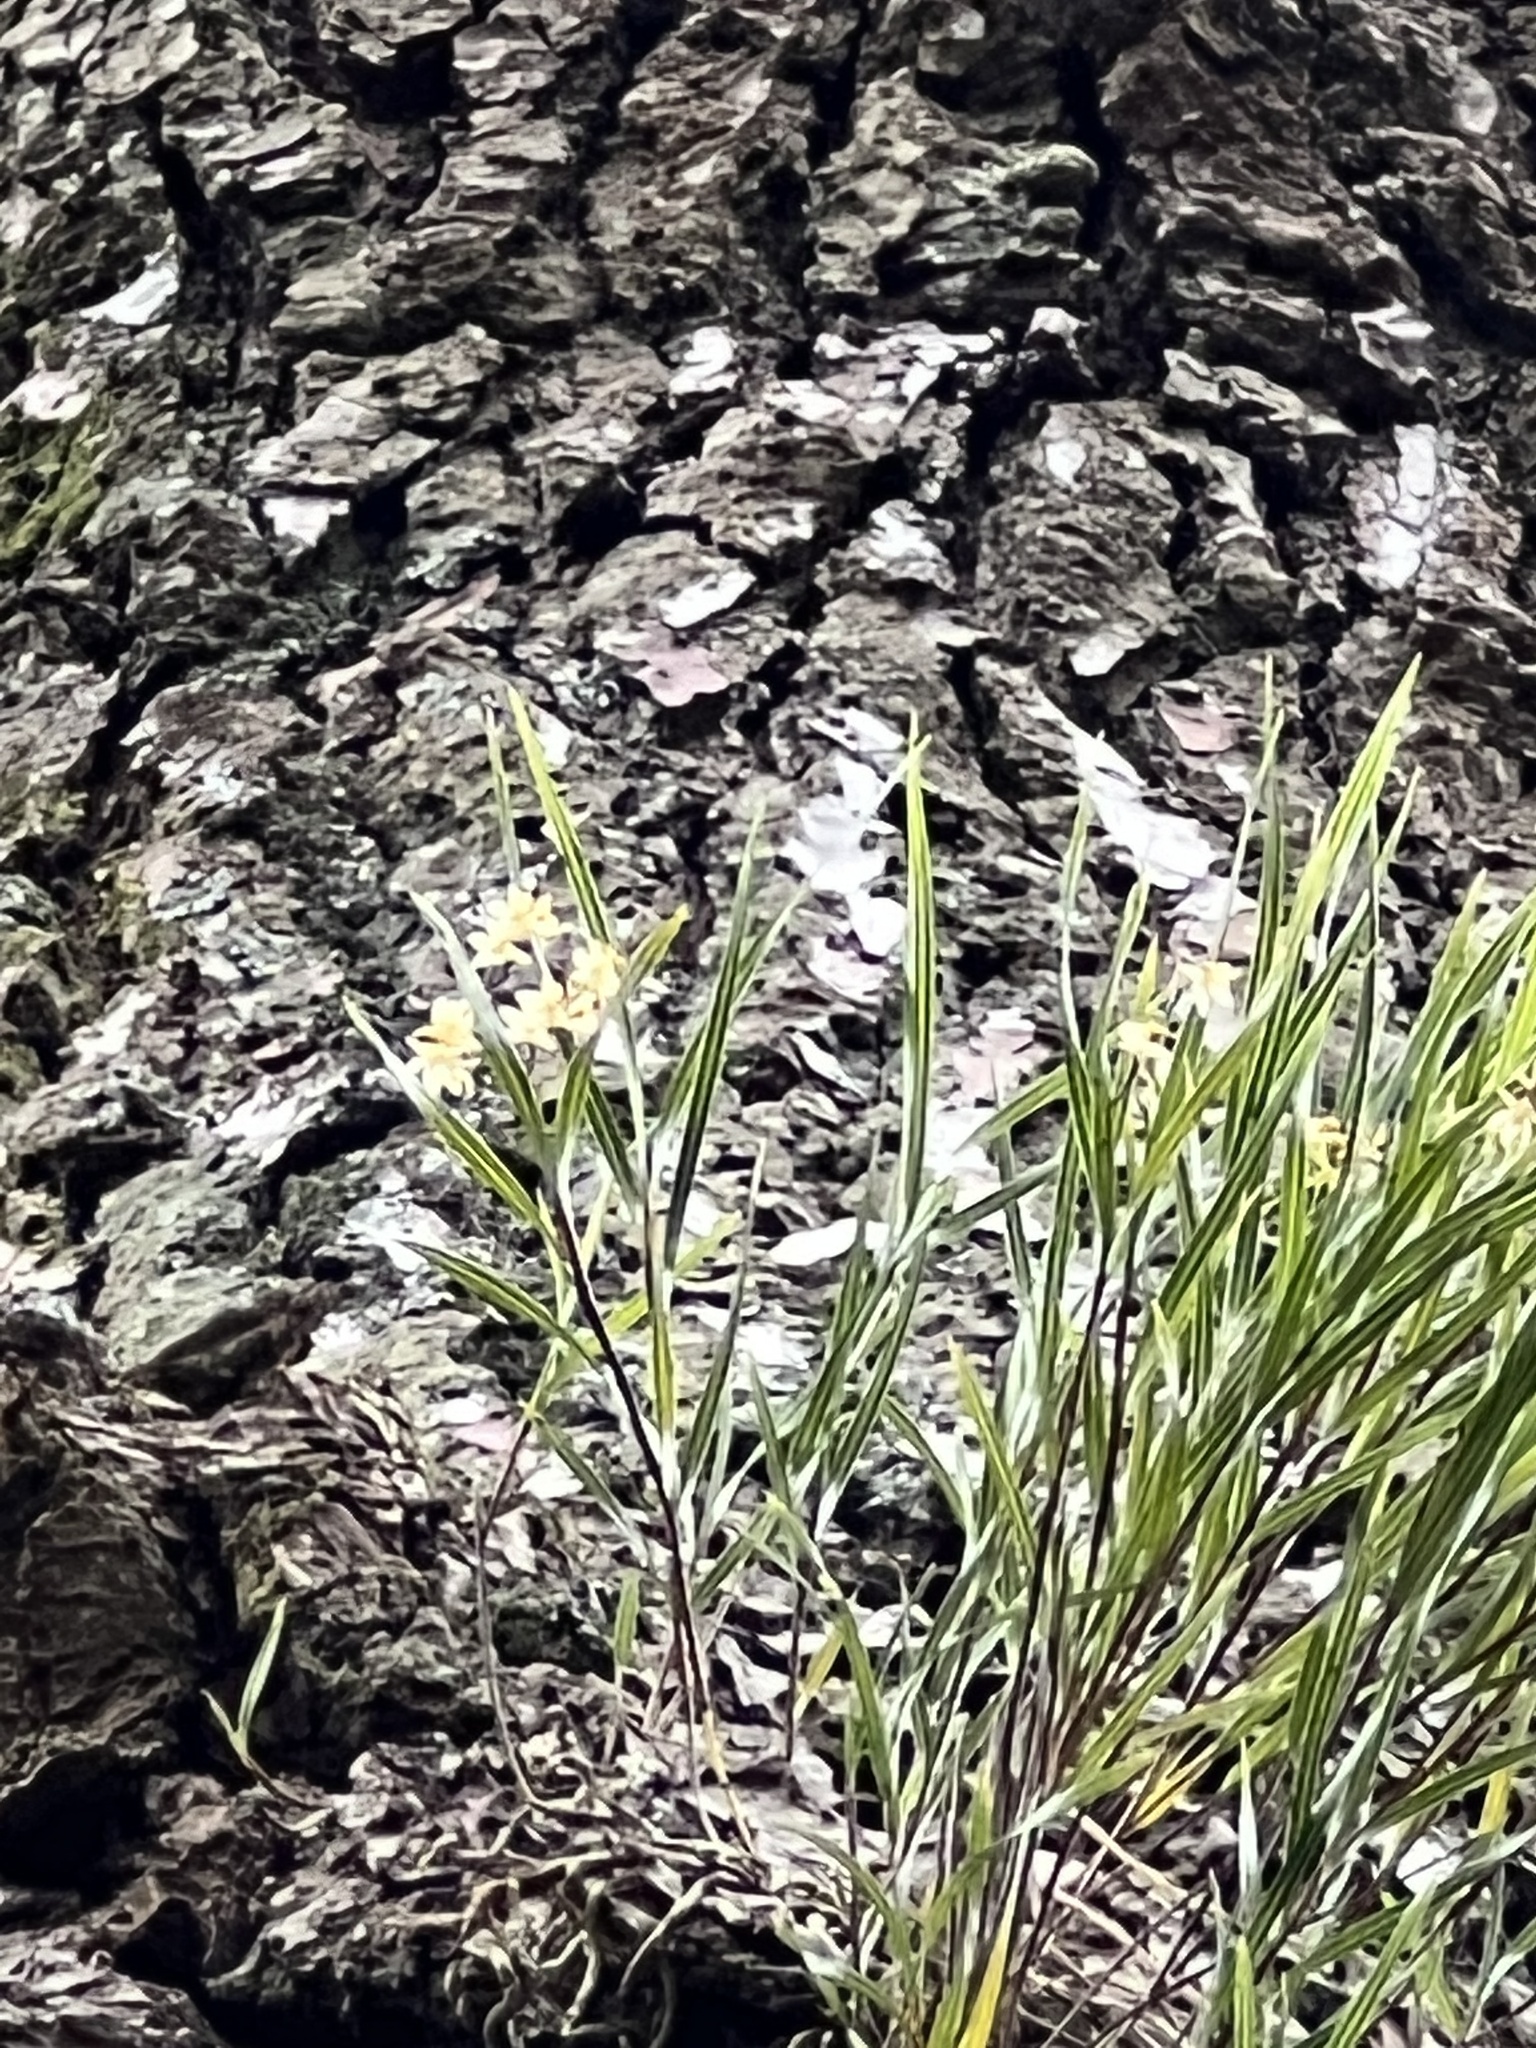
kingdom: Plantae
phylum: Tracheophyta
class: Liliopsida
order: Asparagales
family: Orchidaceae
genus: Earina
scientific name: Earina mucronata
